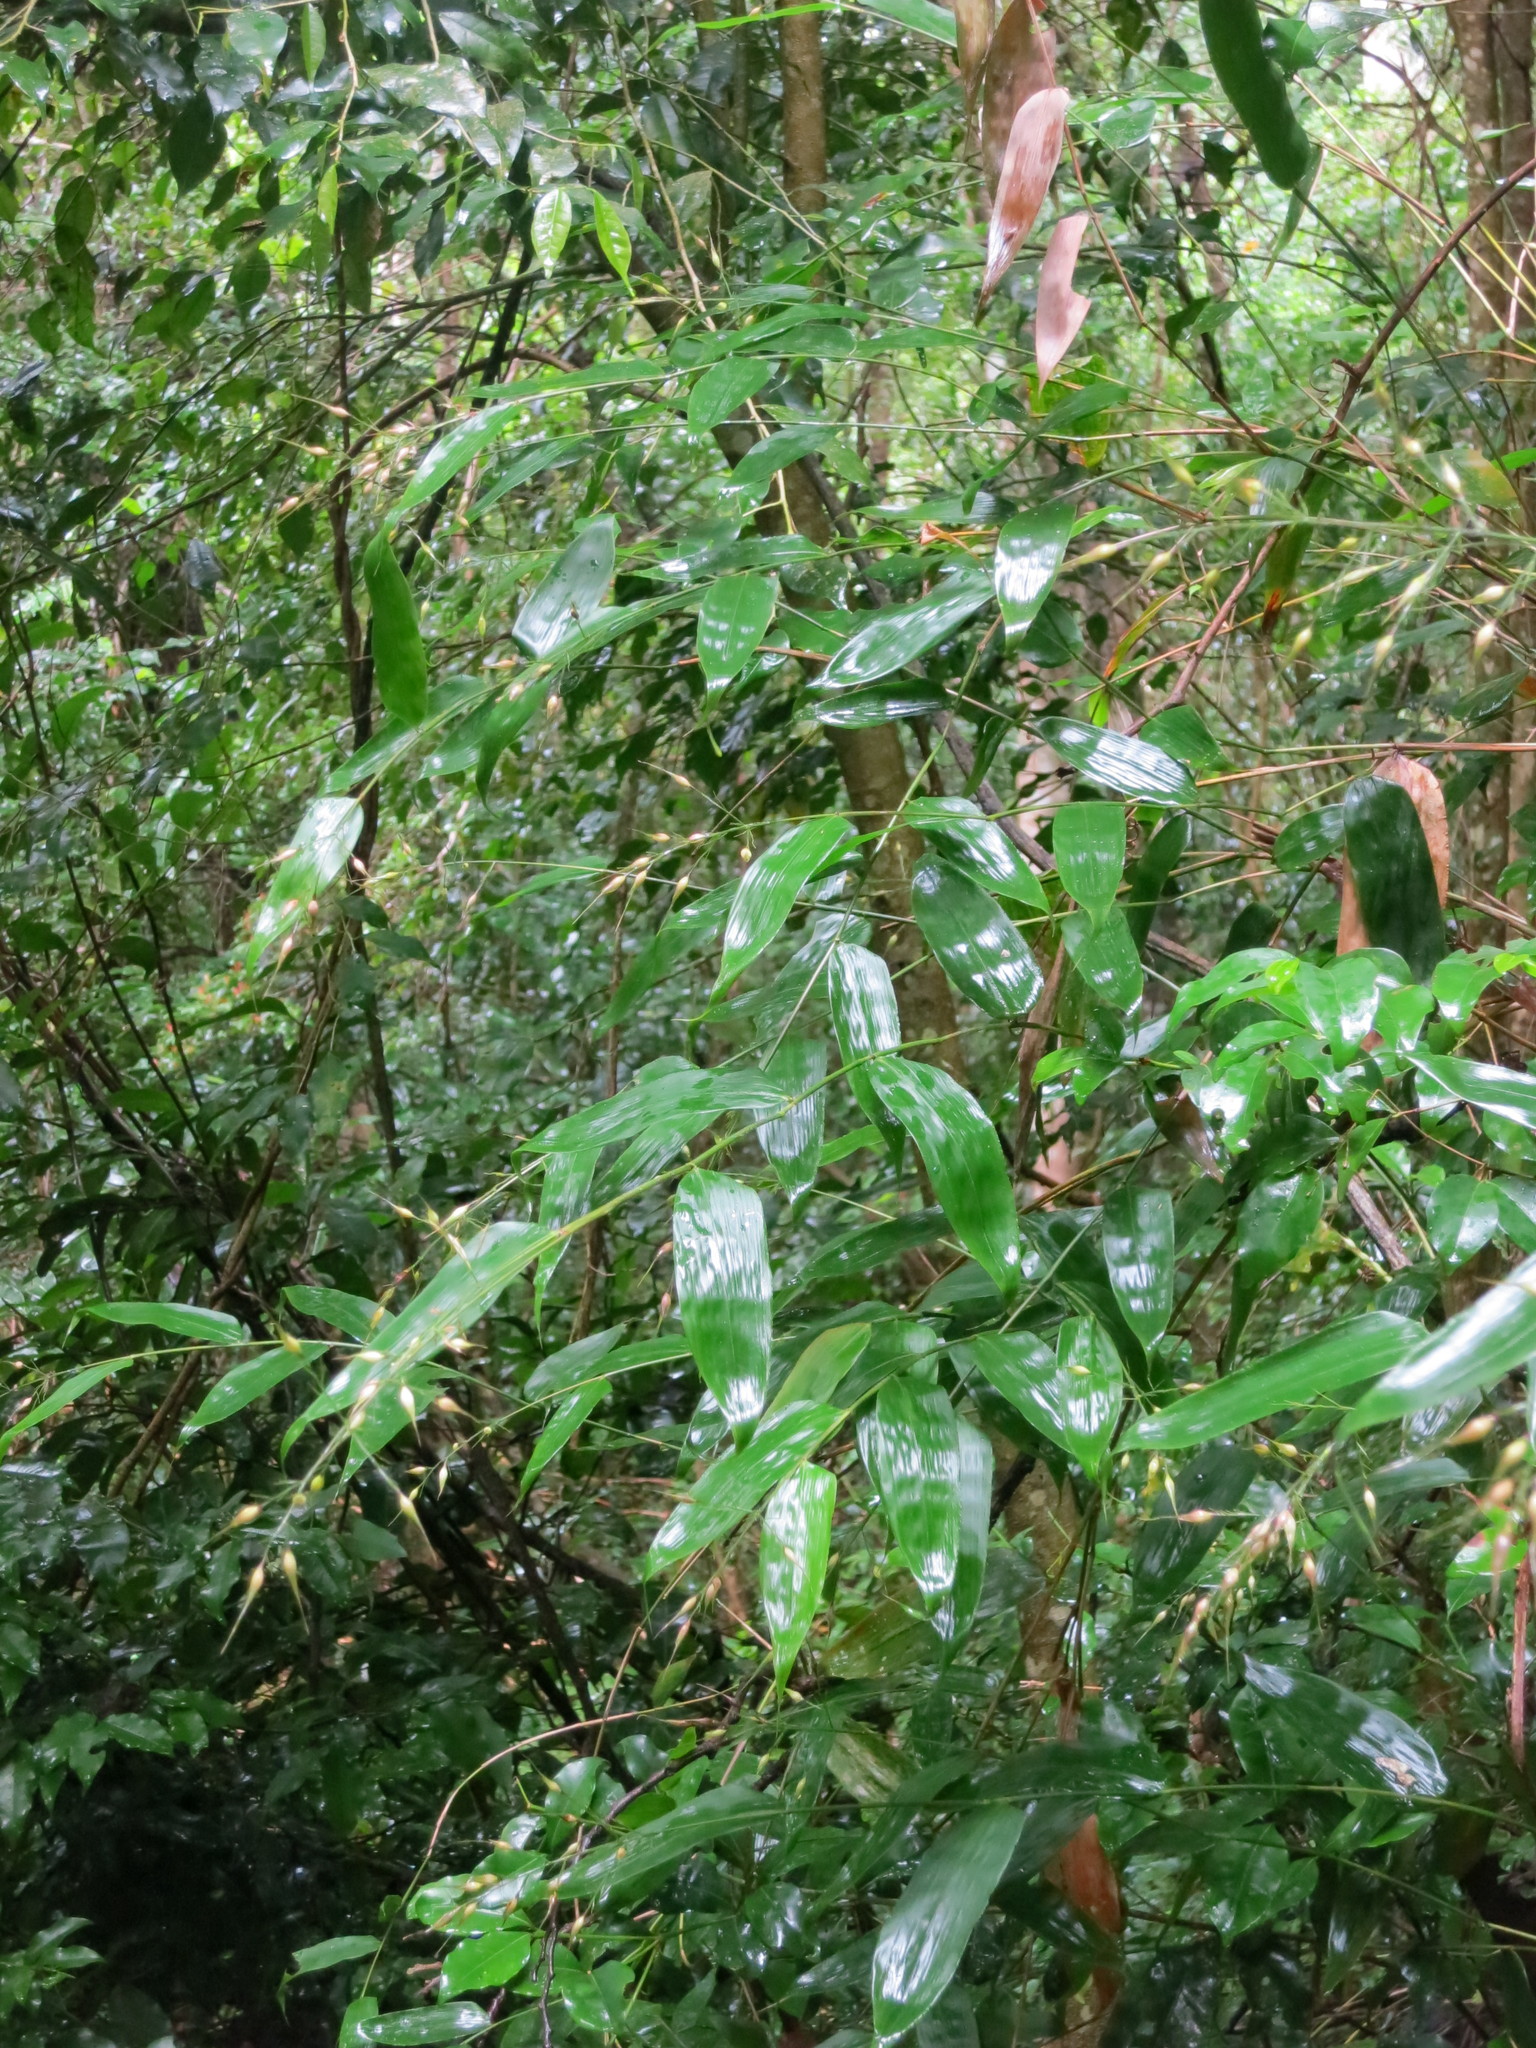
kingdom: Plantae
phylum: Tracheophyta
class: Liliopsida
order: Poales
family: Poaceae
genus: Olyra
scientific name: Olyra latifolia
